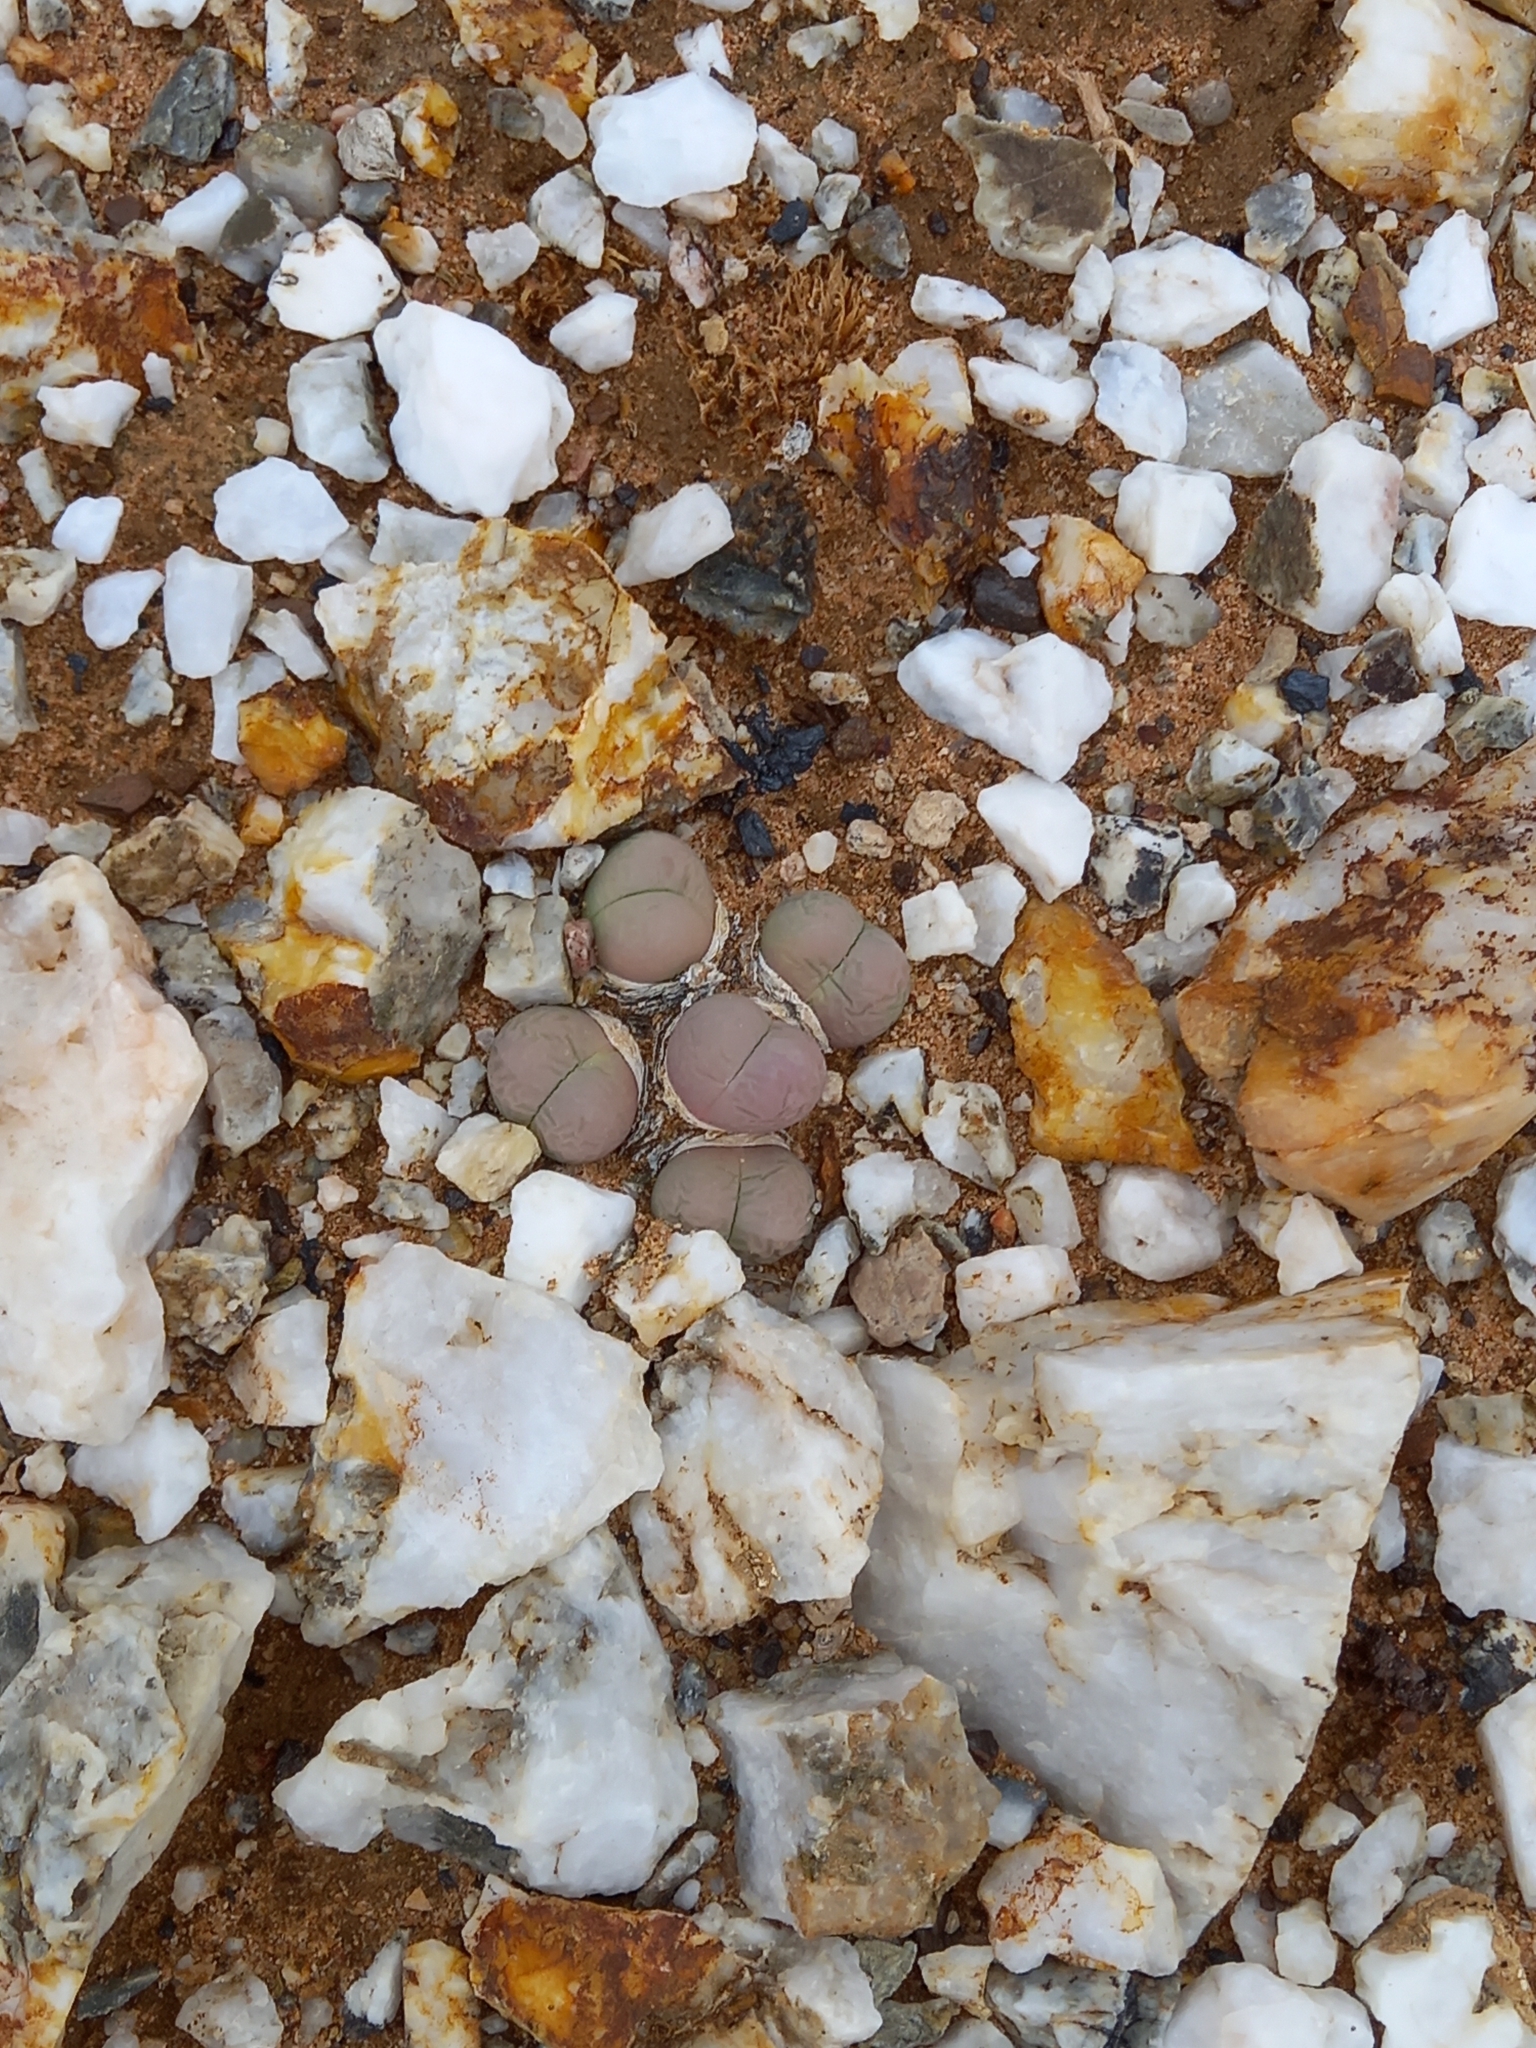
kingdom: Plantae
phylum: Tracheophyta
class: Magnoliopsida
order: Caryophyllales
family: Aizoaceae
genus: Gibbaeum
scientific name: Gibbaeum heathii
